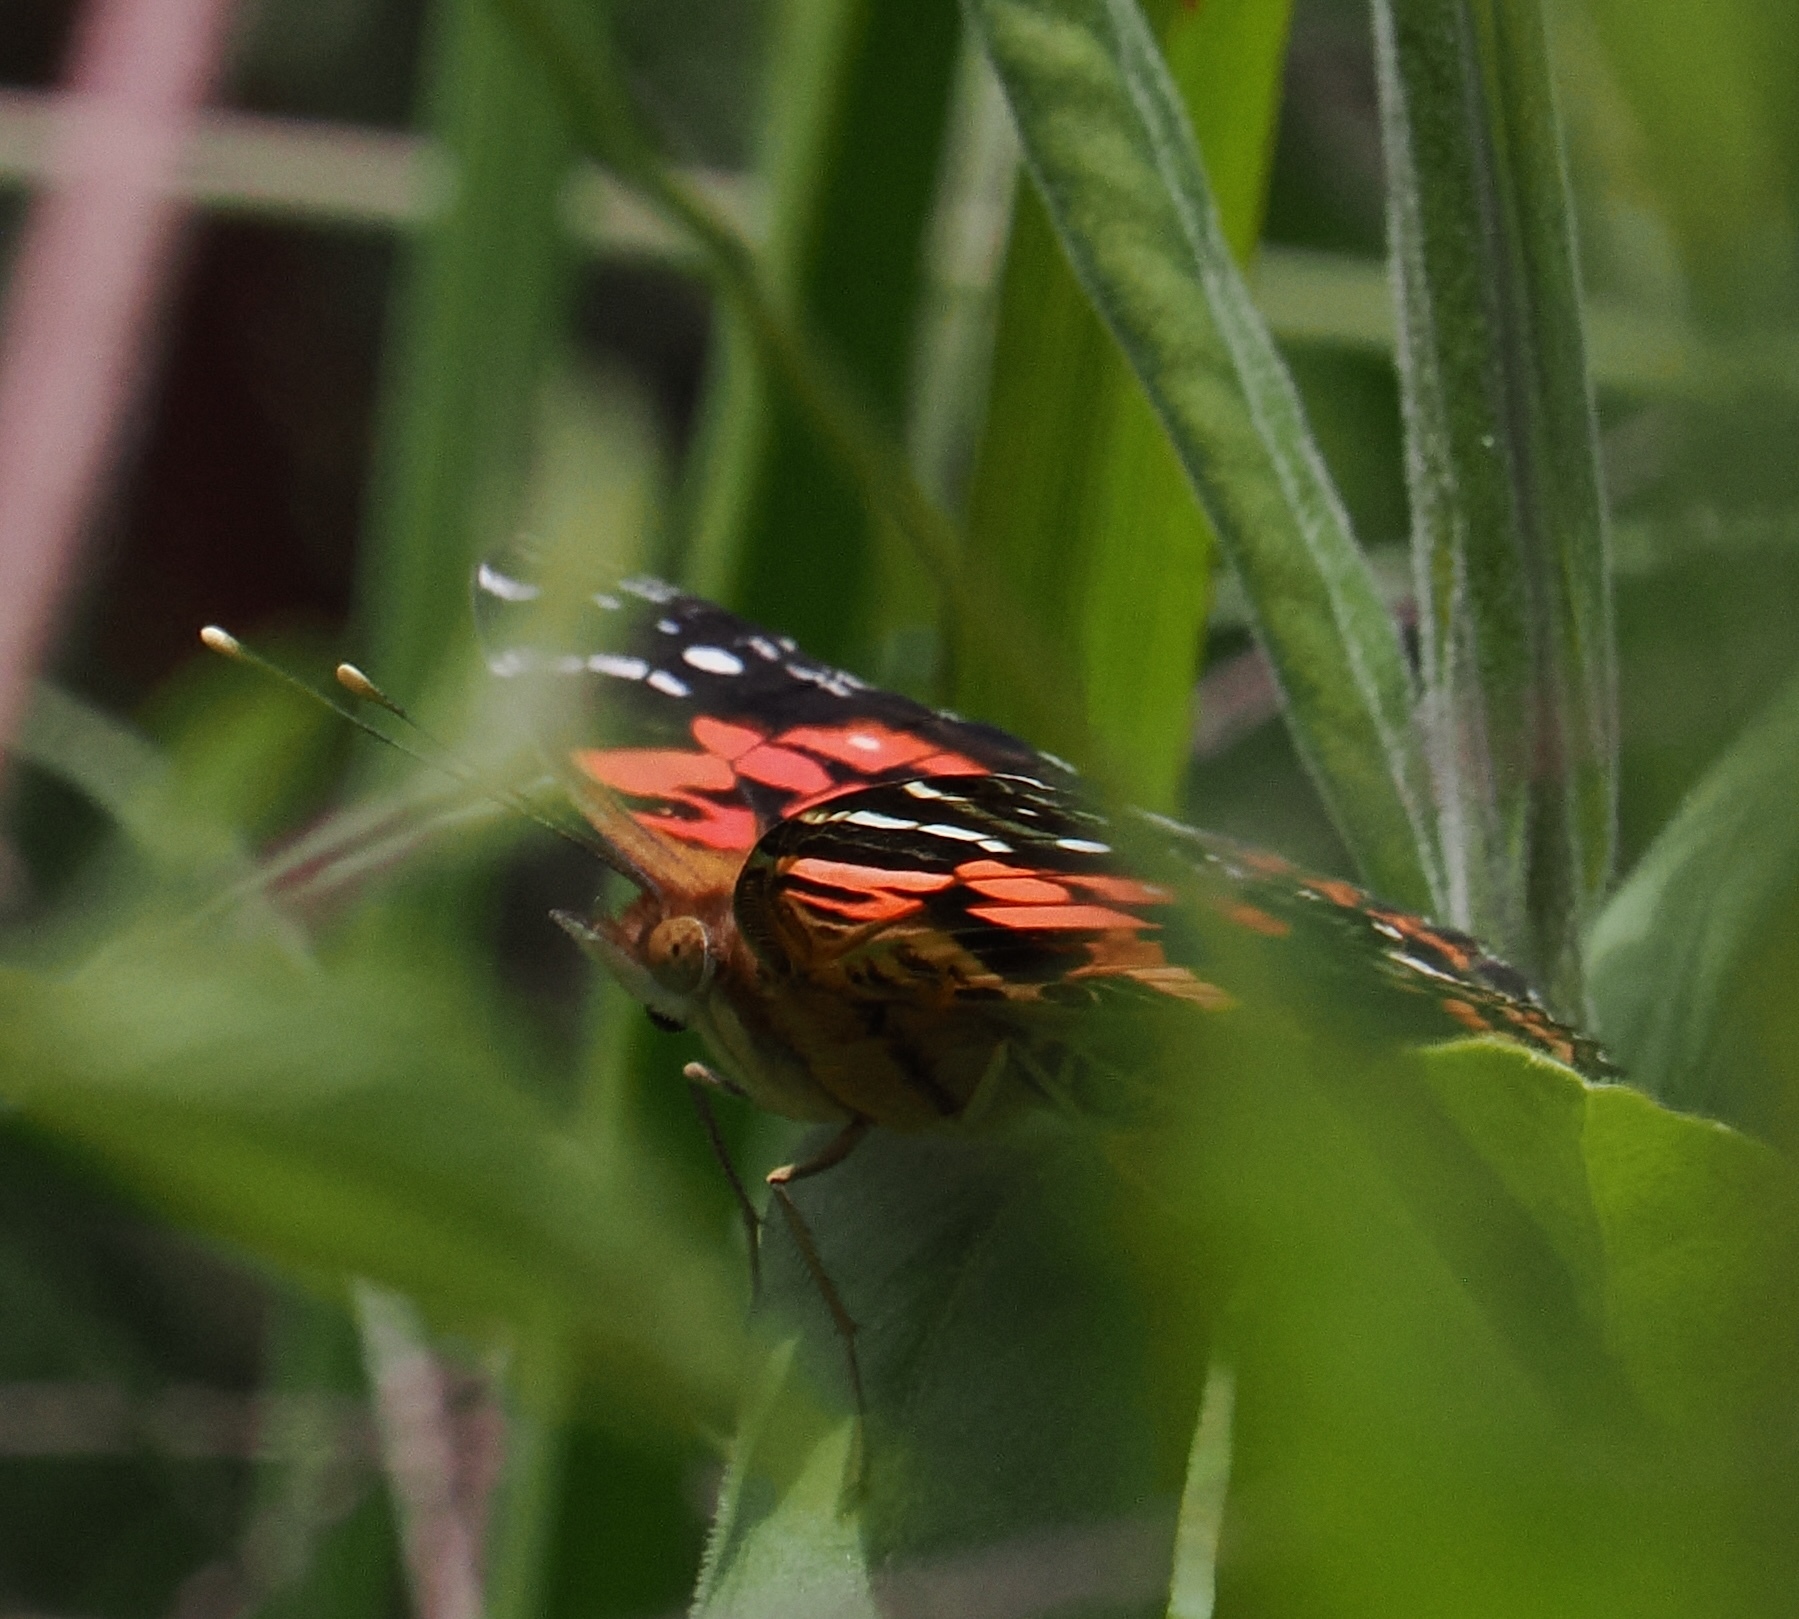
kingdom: Animalia
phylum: Arthropoda
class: Insecta
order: Lepidoptera
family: Nymphalidae
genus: Vanessa
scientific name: Vanessa myrinna
